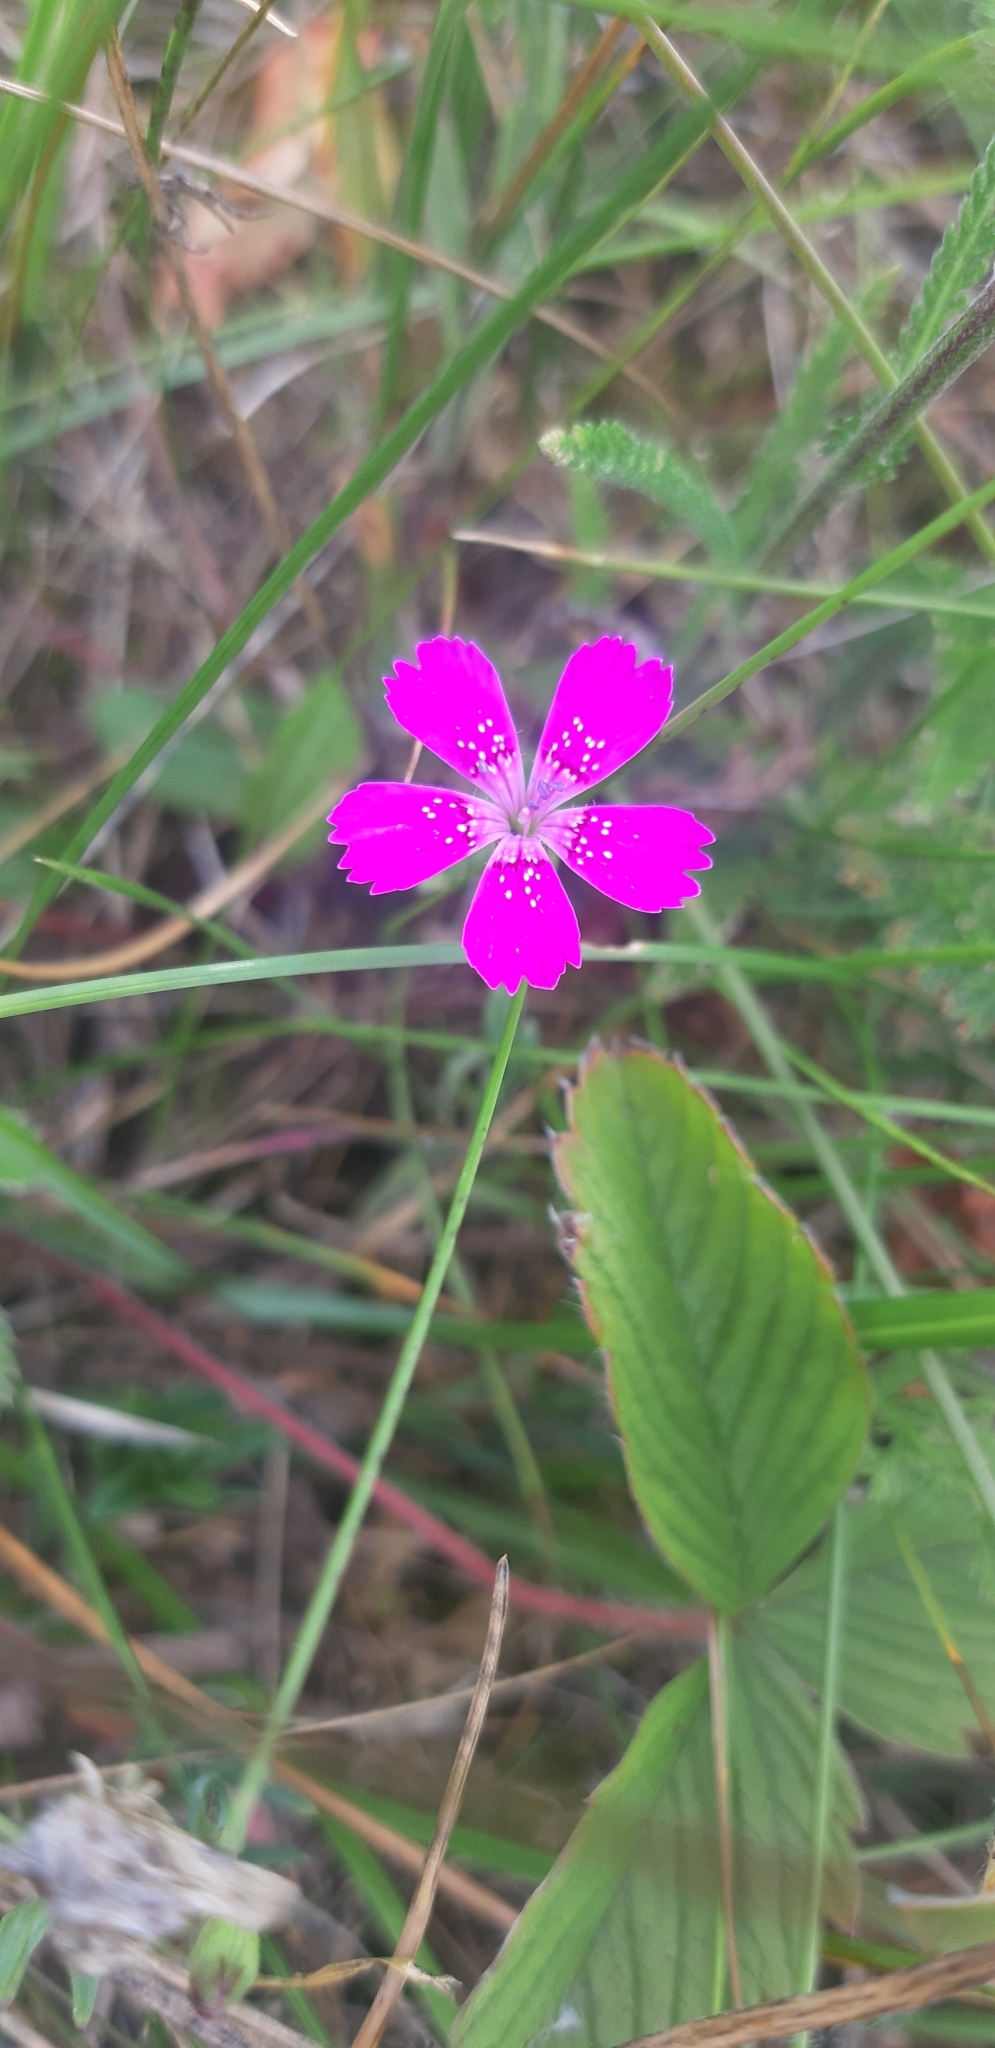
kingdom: Plantae
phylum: Tracheophyta
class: Magnoliopsida
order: Caryophyllales
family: Caryophyllaceae
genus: Dianthus
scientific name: Dianthus deltoides
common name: Maiden pink
